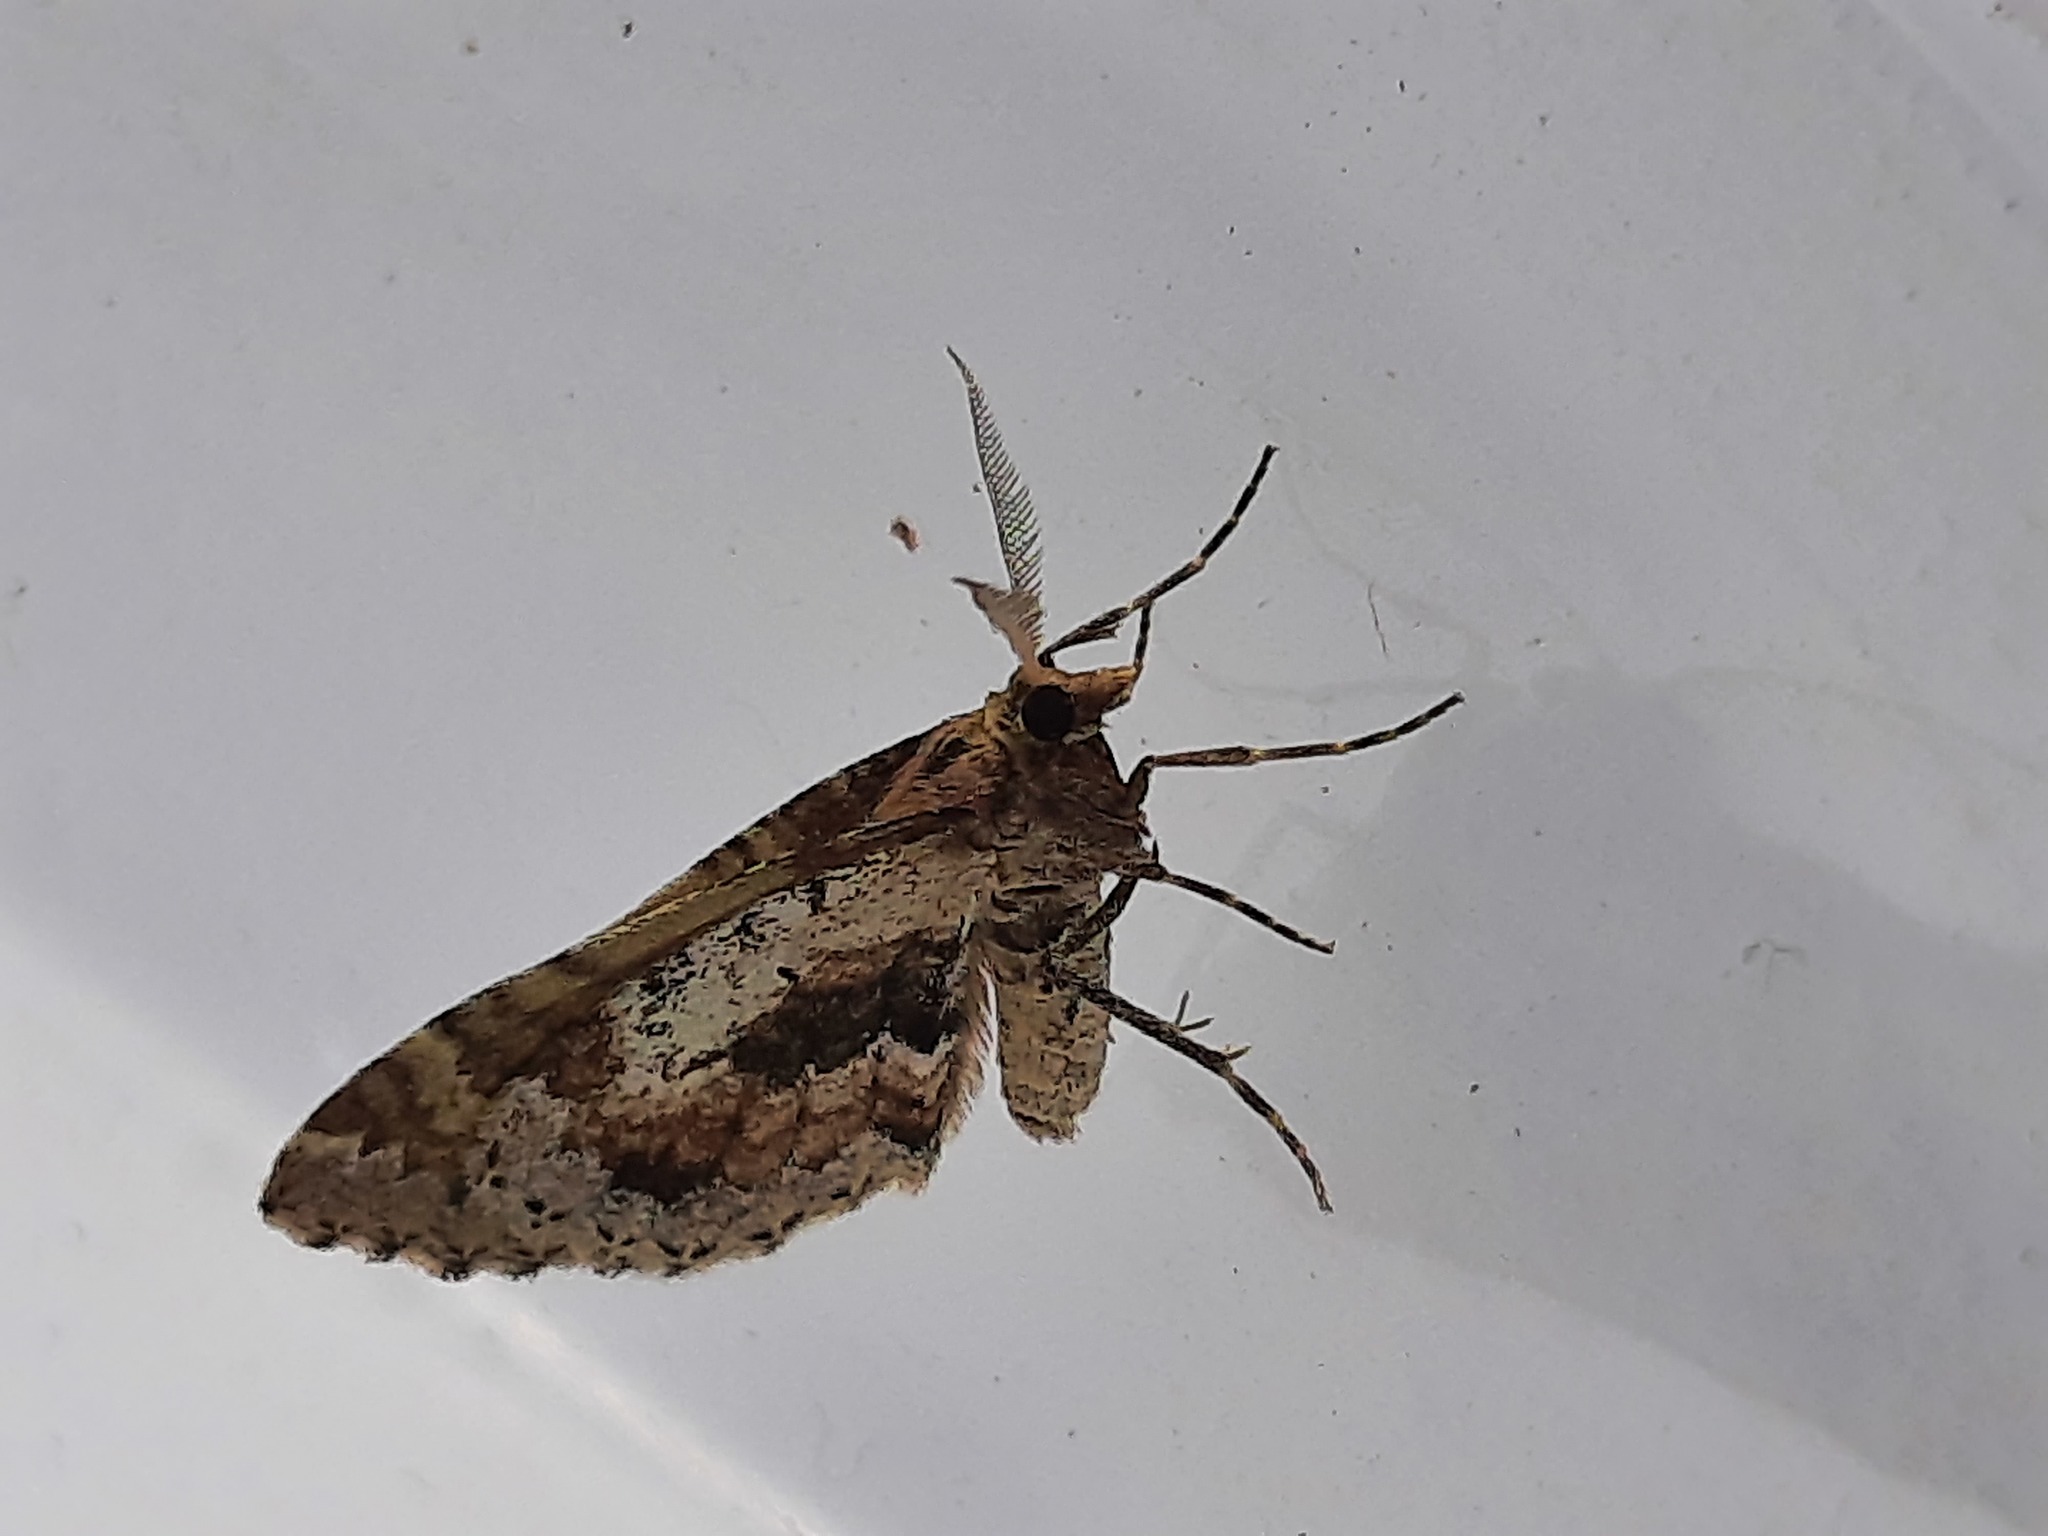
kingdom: Animalia
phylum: Arthropoda
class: Insecta
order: Lepidoptera
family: Geometridae
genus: Asaphodes
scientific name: Asaphodes aegrota
